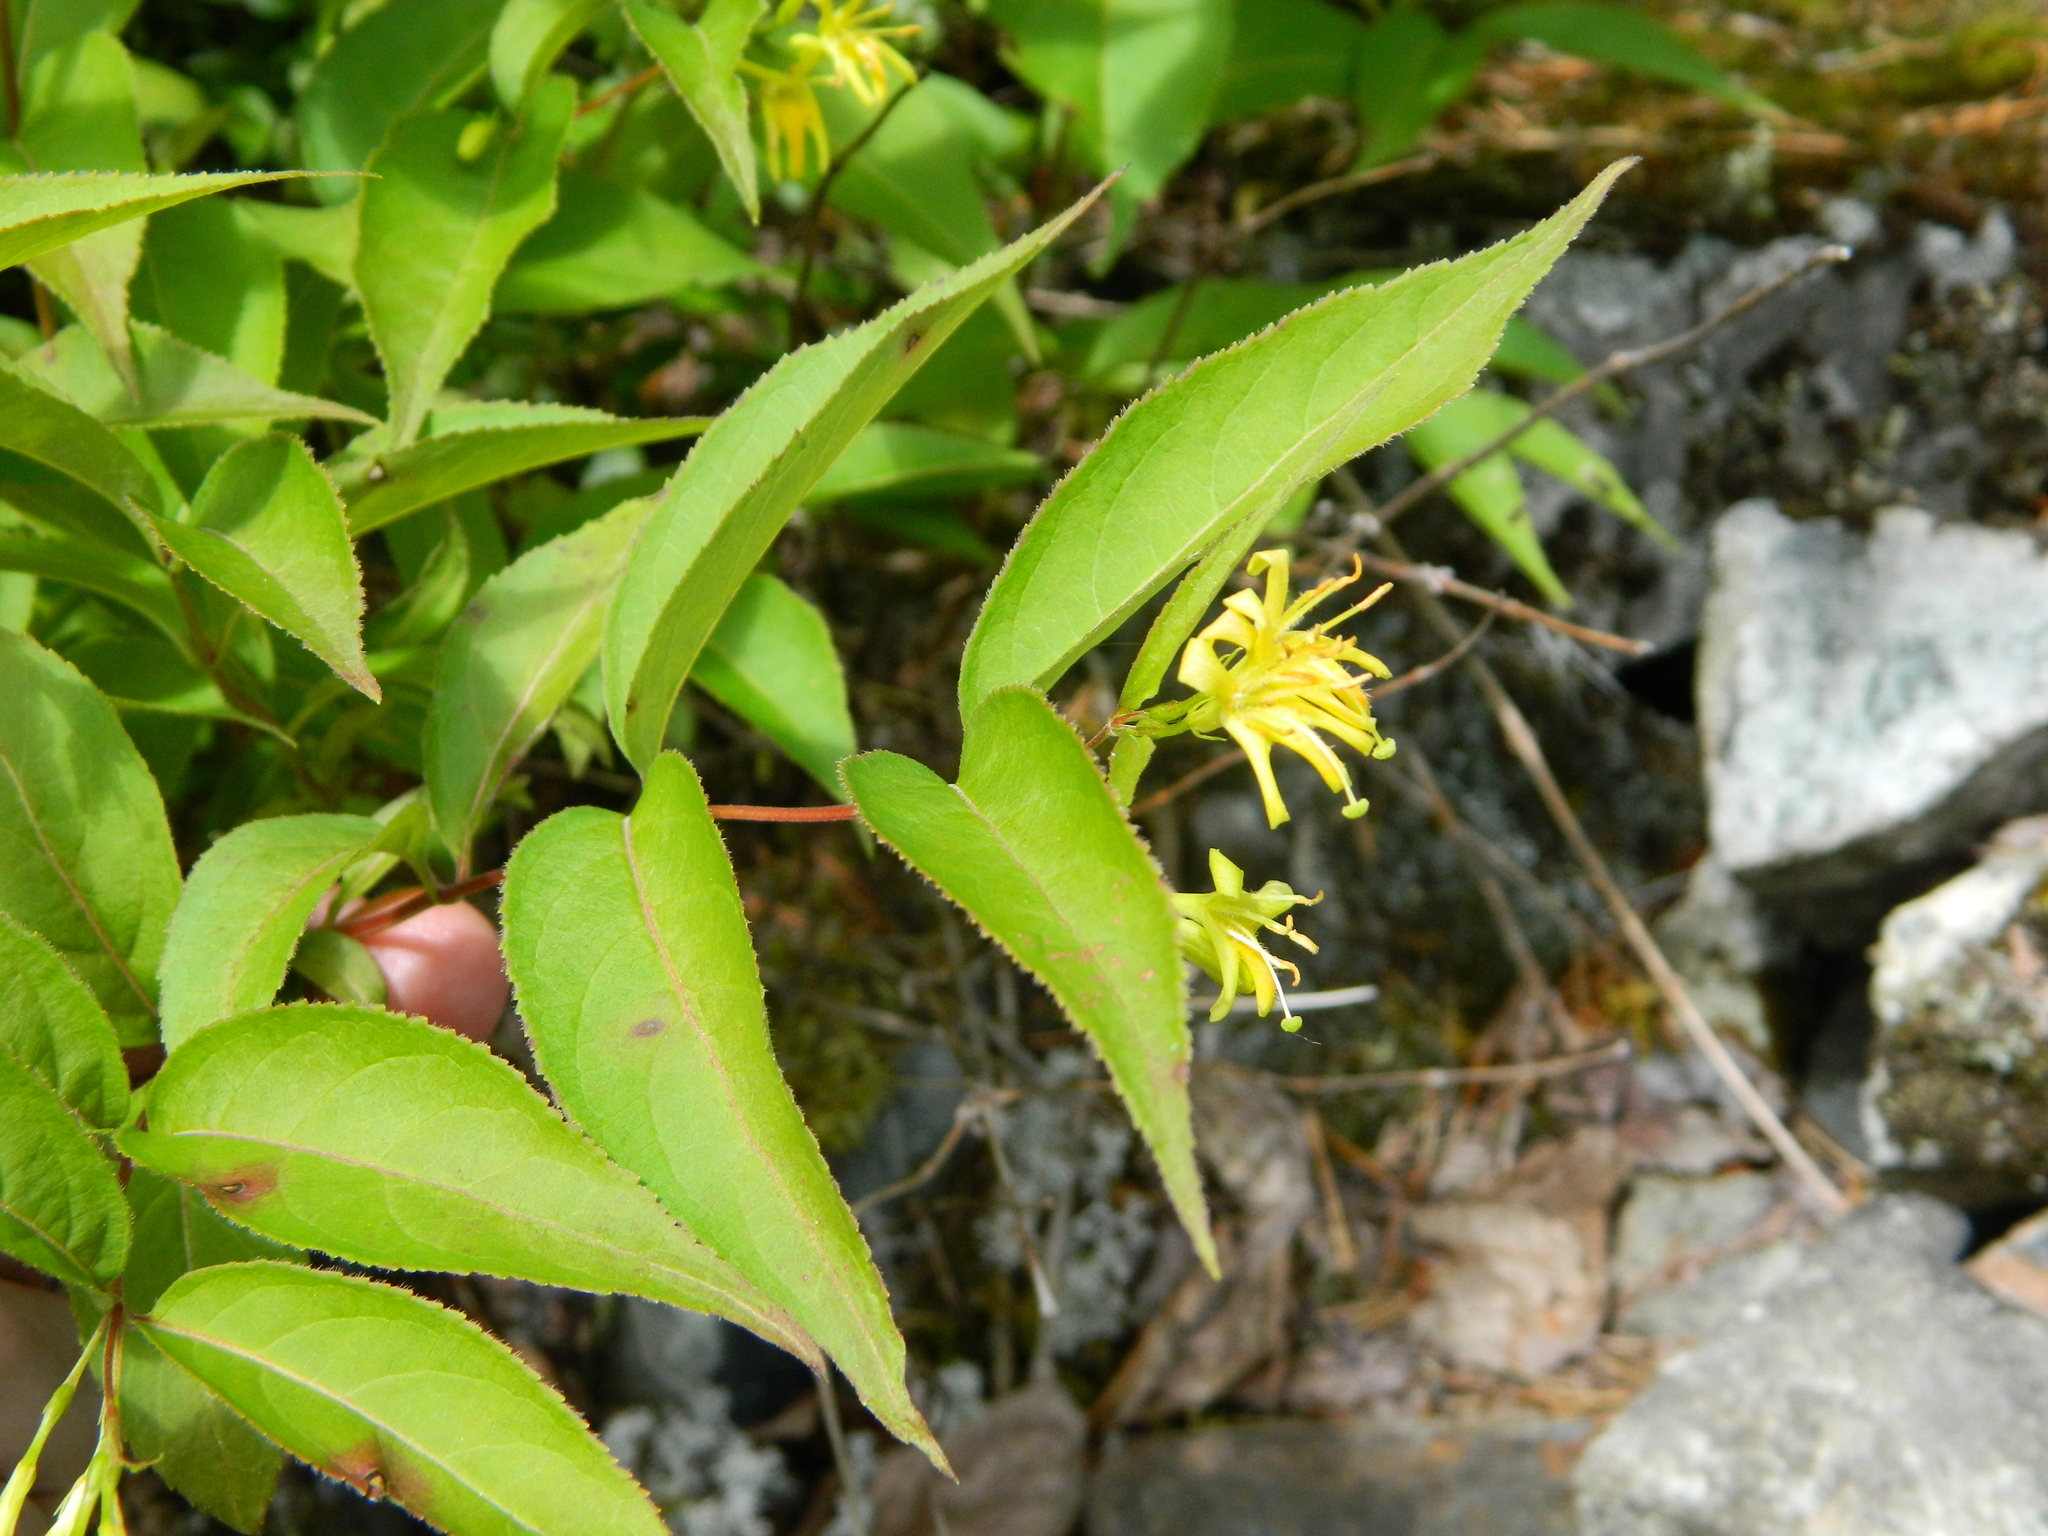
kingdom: Plantae
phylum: Tracheophyta
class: Magnoliopsida
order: Dipsacales
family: Caprifoliaceae
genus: Diervilla
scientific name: Diervilla lonicera
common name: Bush-honeysuckle
